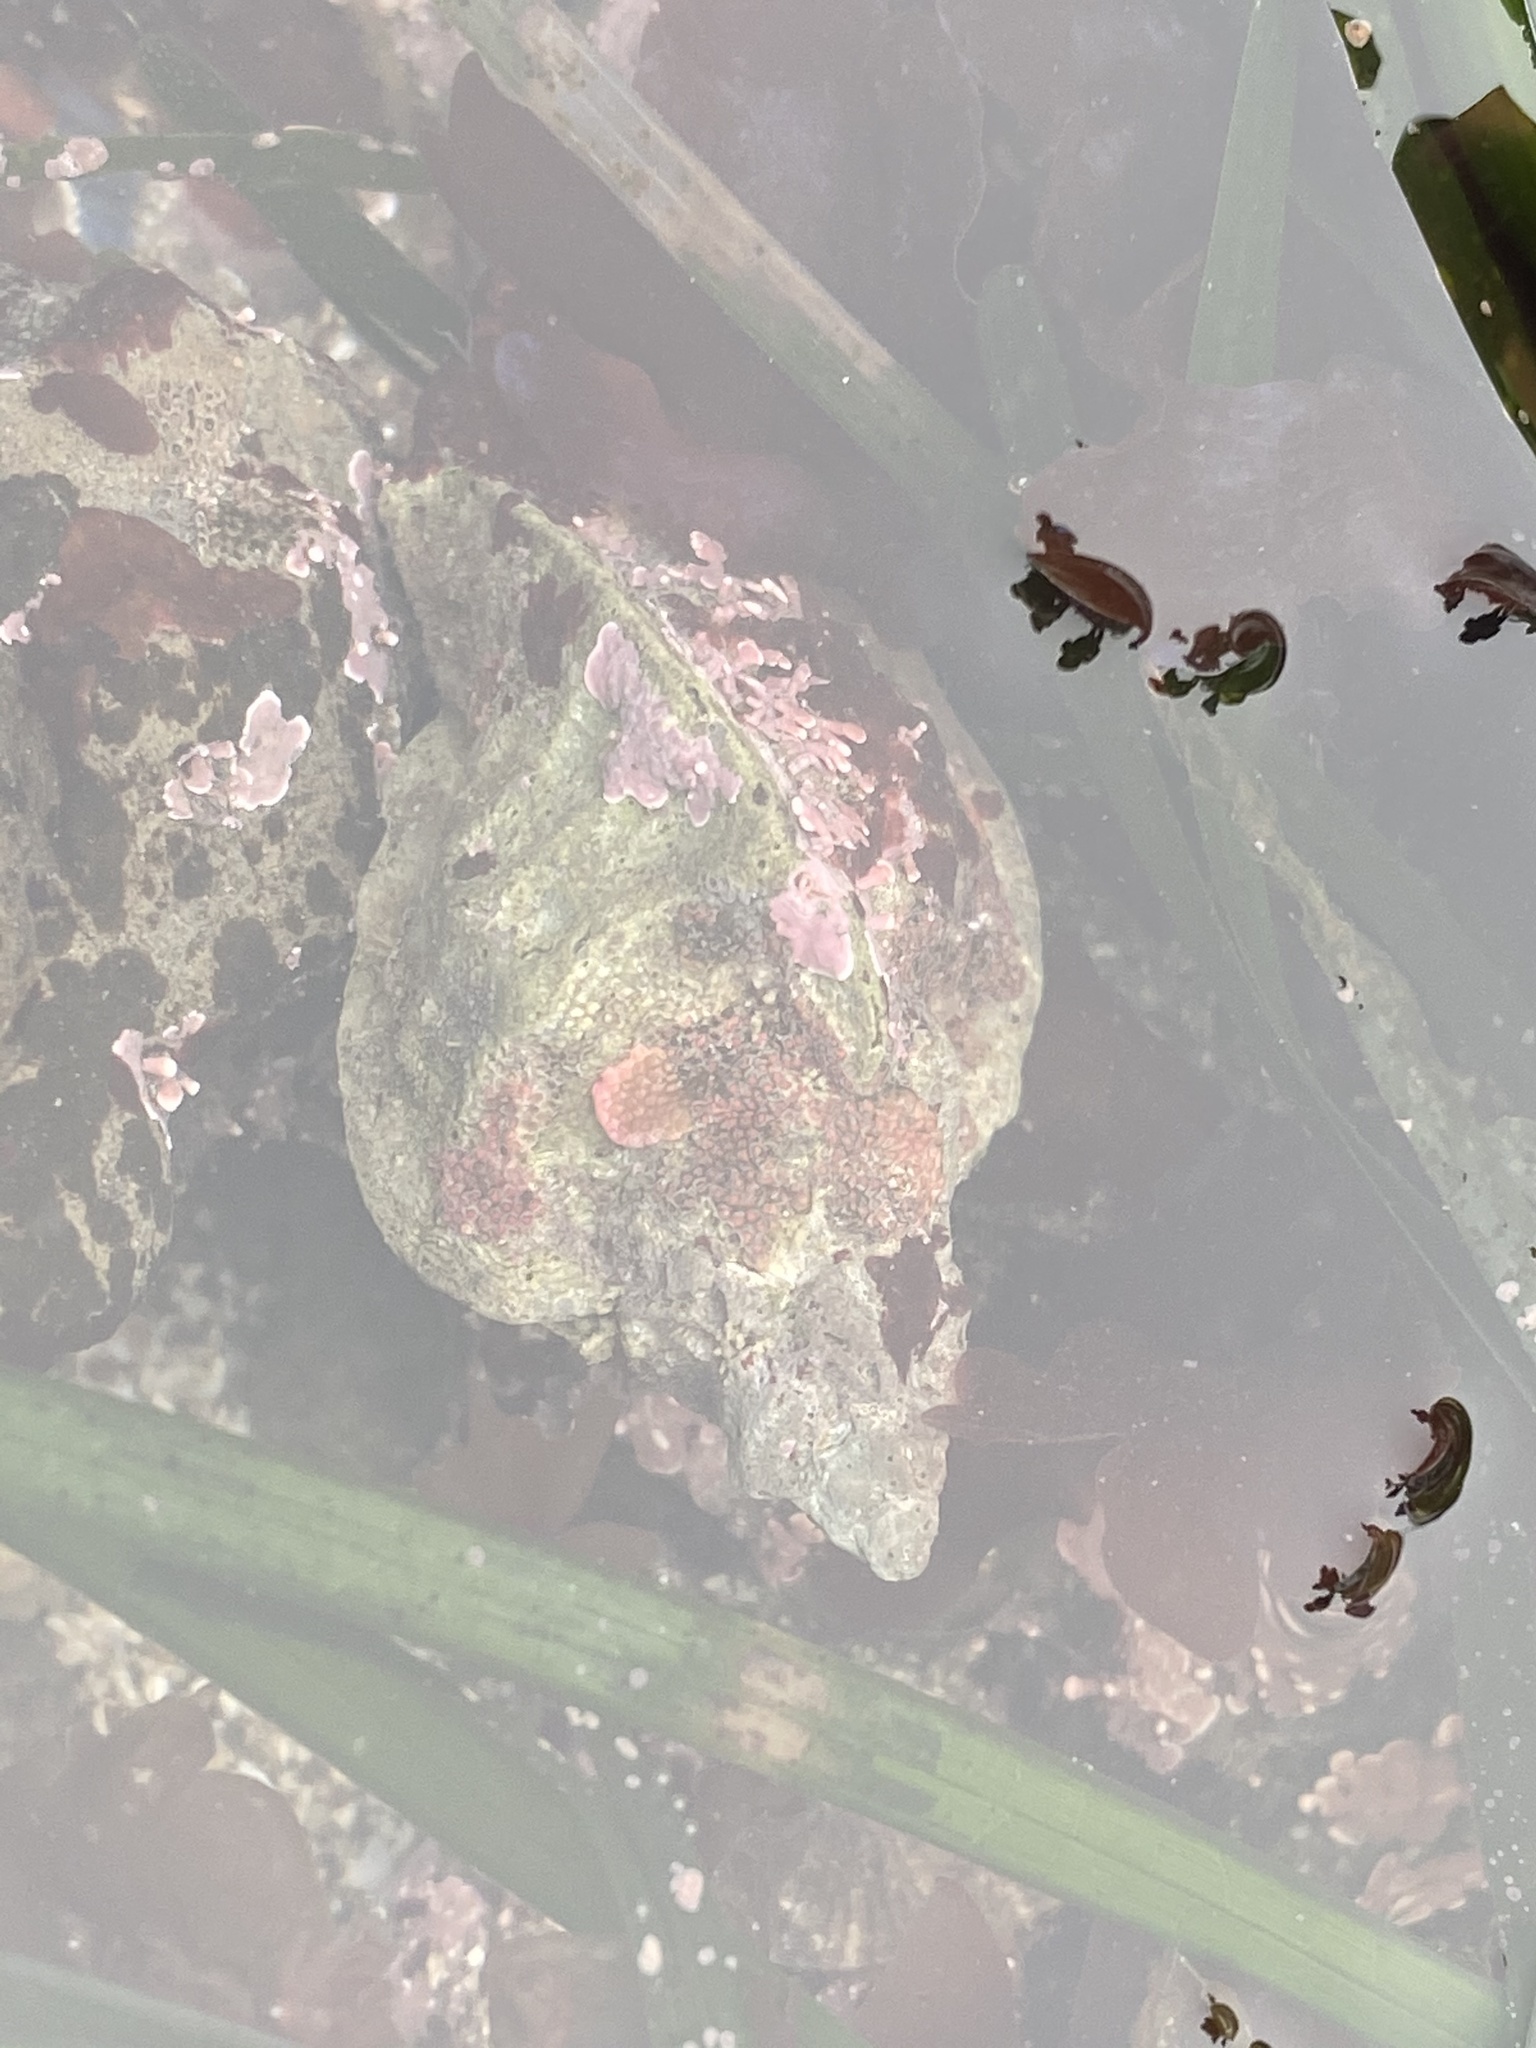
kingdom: Animalia
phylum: Mollusca
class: Gastropoda
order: Neogastropoda
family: Muricidae
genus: Ceratostoma
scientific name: Ceratostoma foliatum
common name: Foliate thorn purpura
